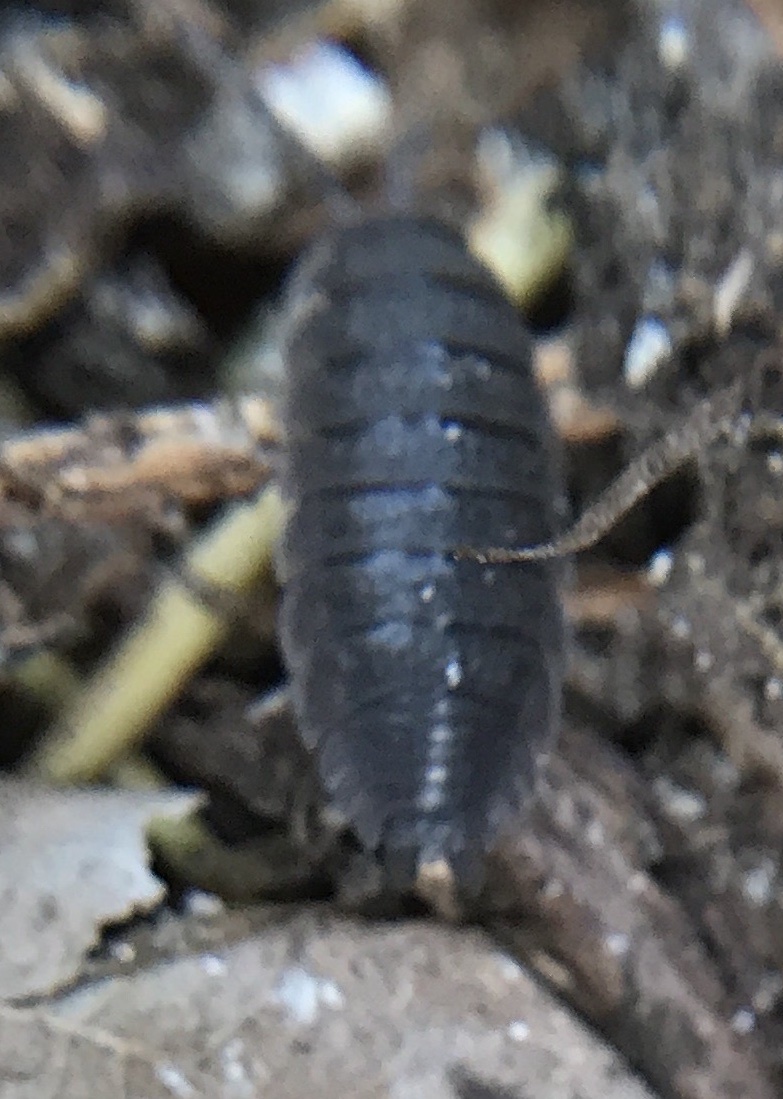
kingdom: Animalia
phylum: Arthropoda
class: Malacostraca
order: Isopoda
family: Porcellionidae
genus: Porcellio
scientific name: Porcellio scaber
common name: Common rough woodlouse
